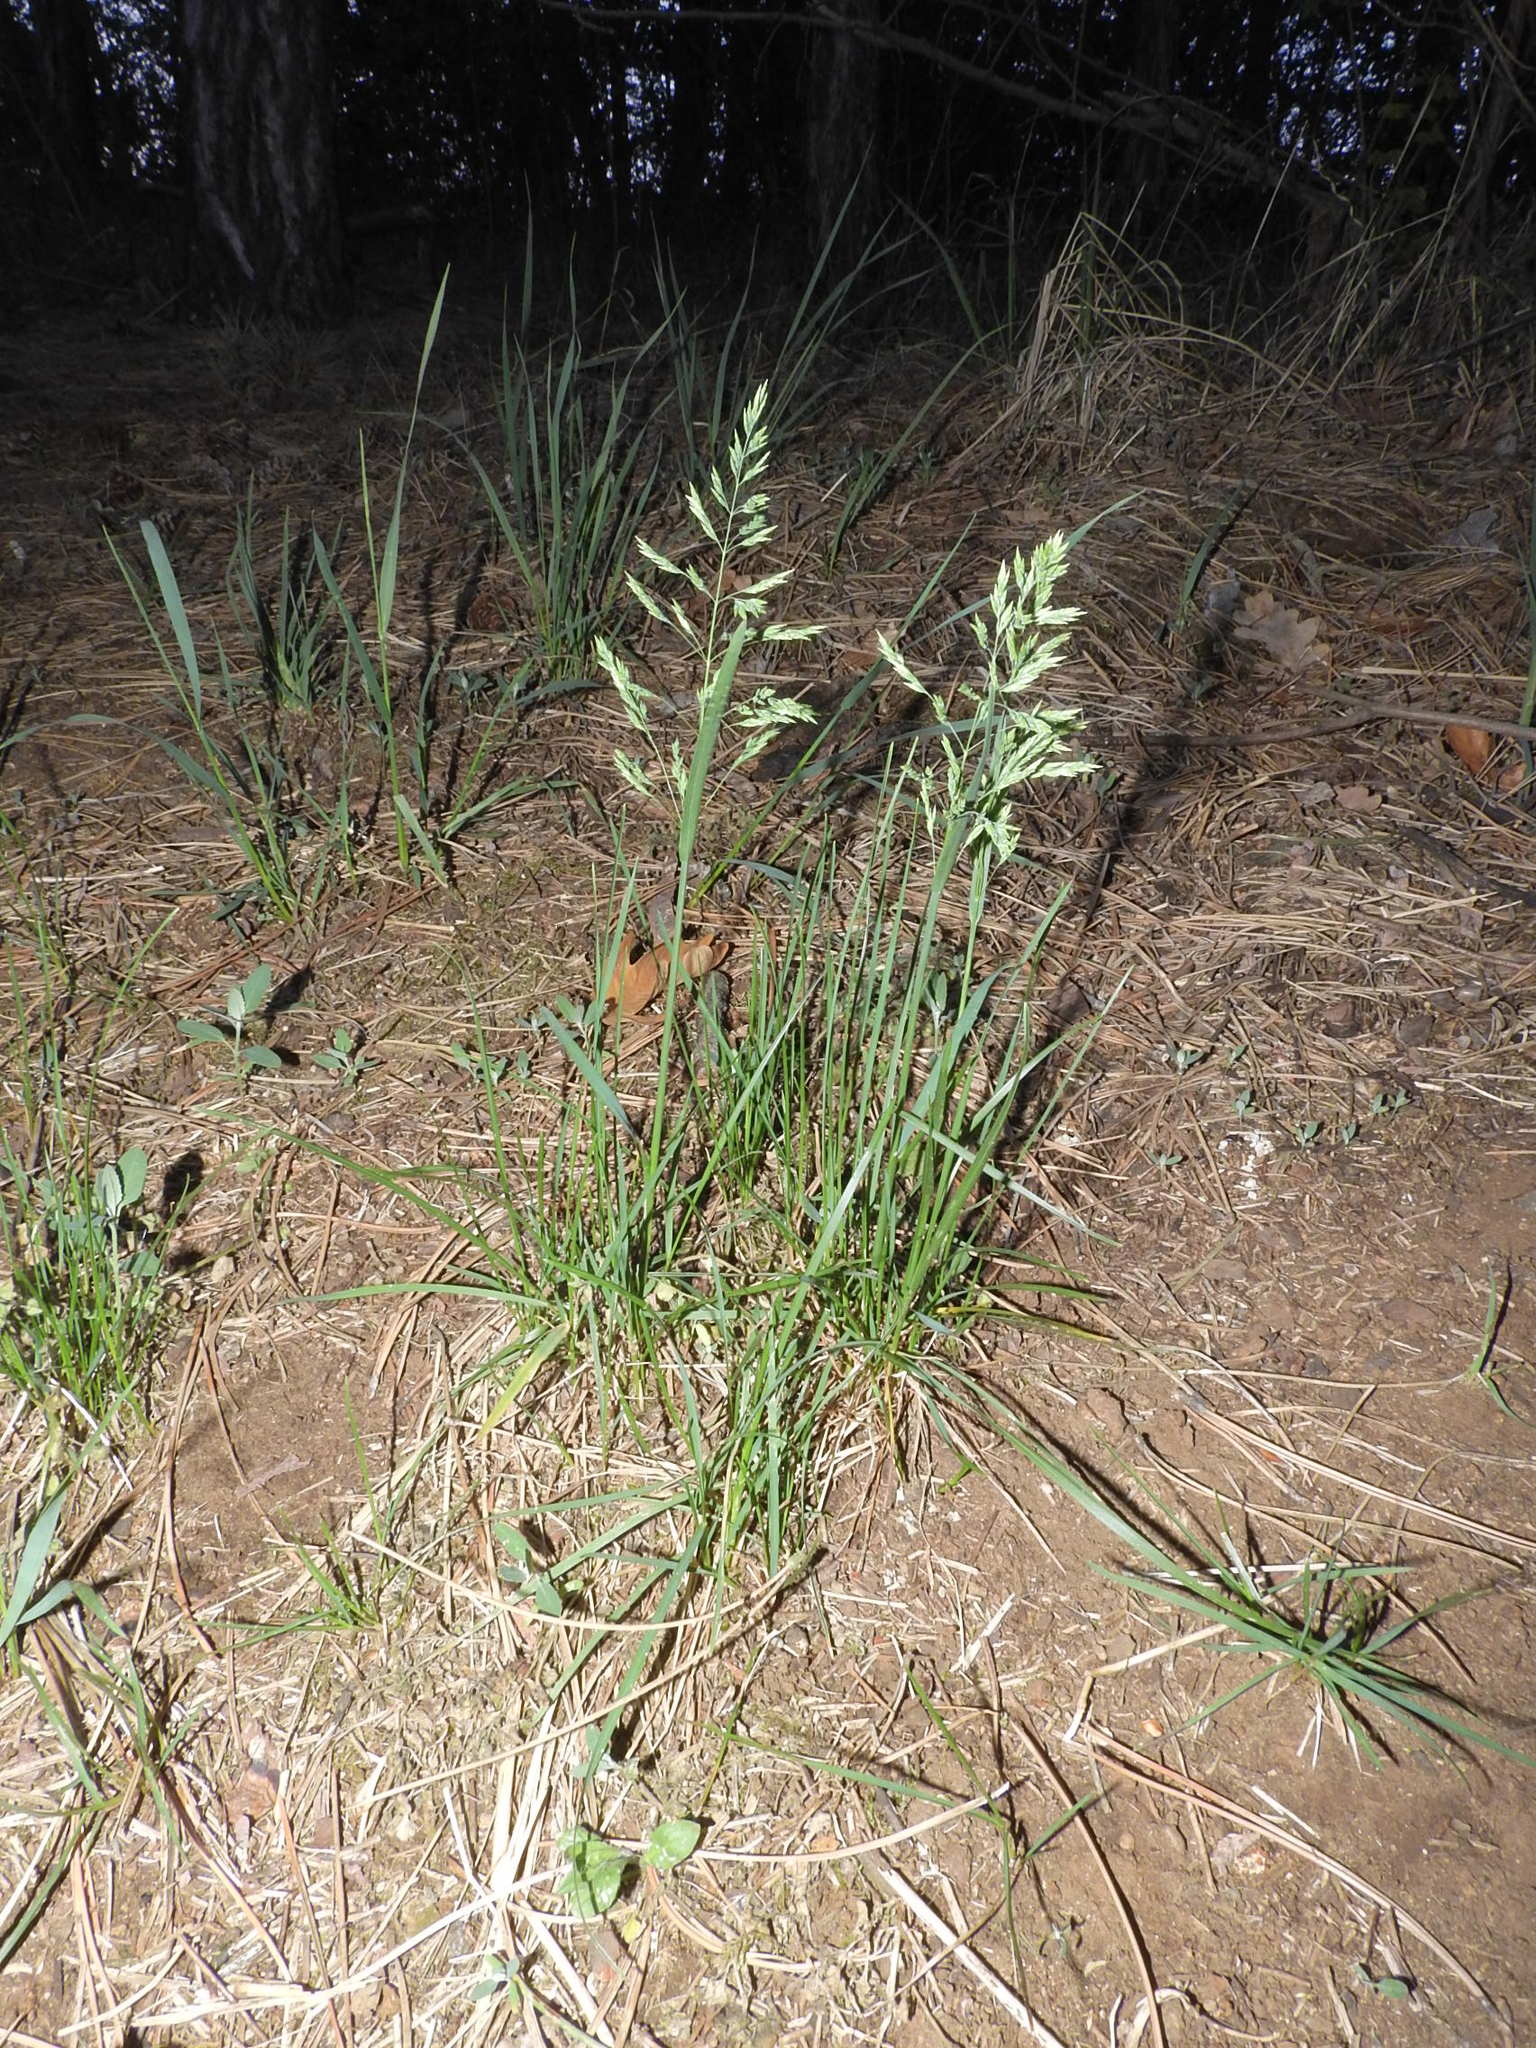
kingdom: Plantae
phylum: Tracheophyta
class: Liliopsida
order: Poales
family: Poaceae
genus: Poa
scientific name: Poa pratensis
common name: Kentucky bluegrass
